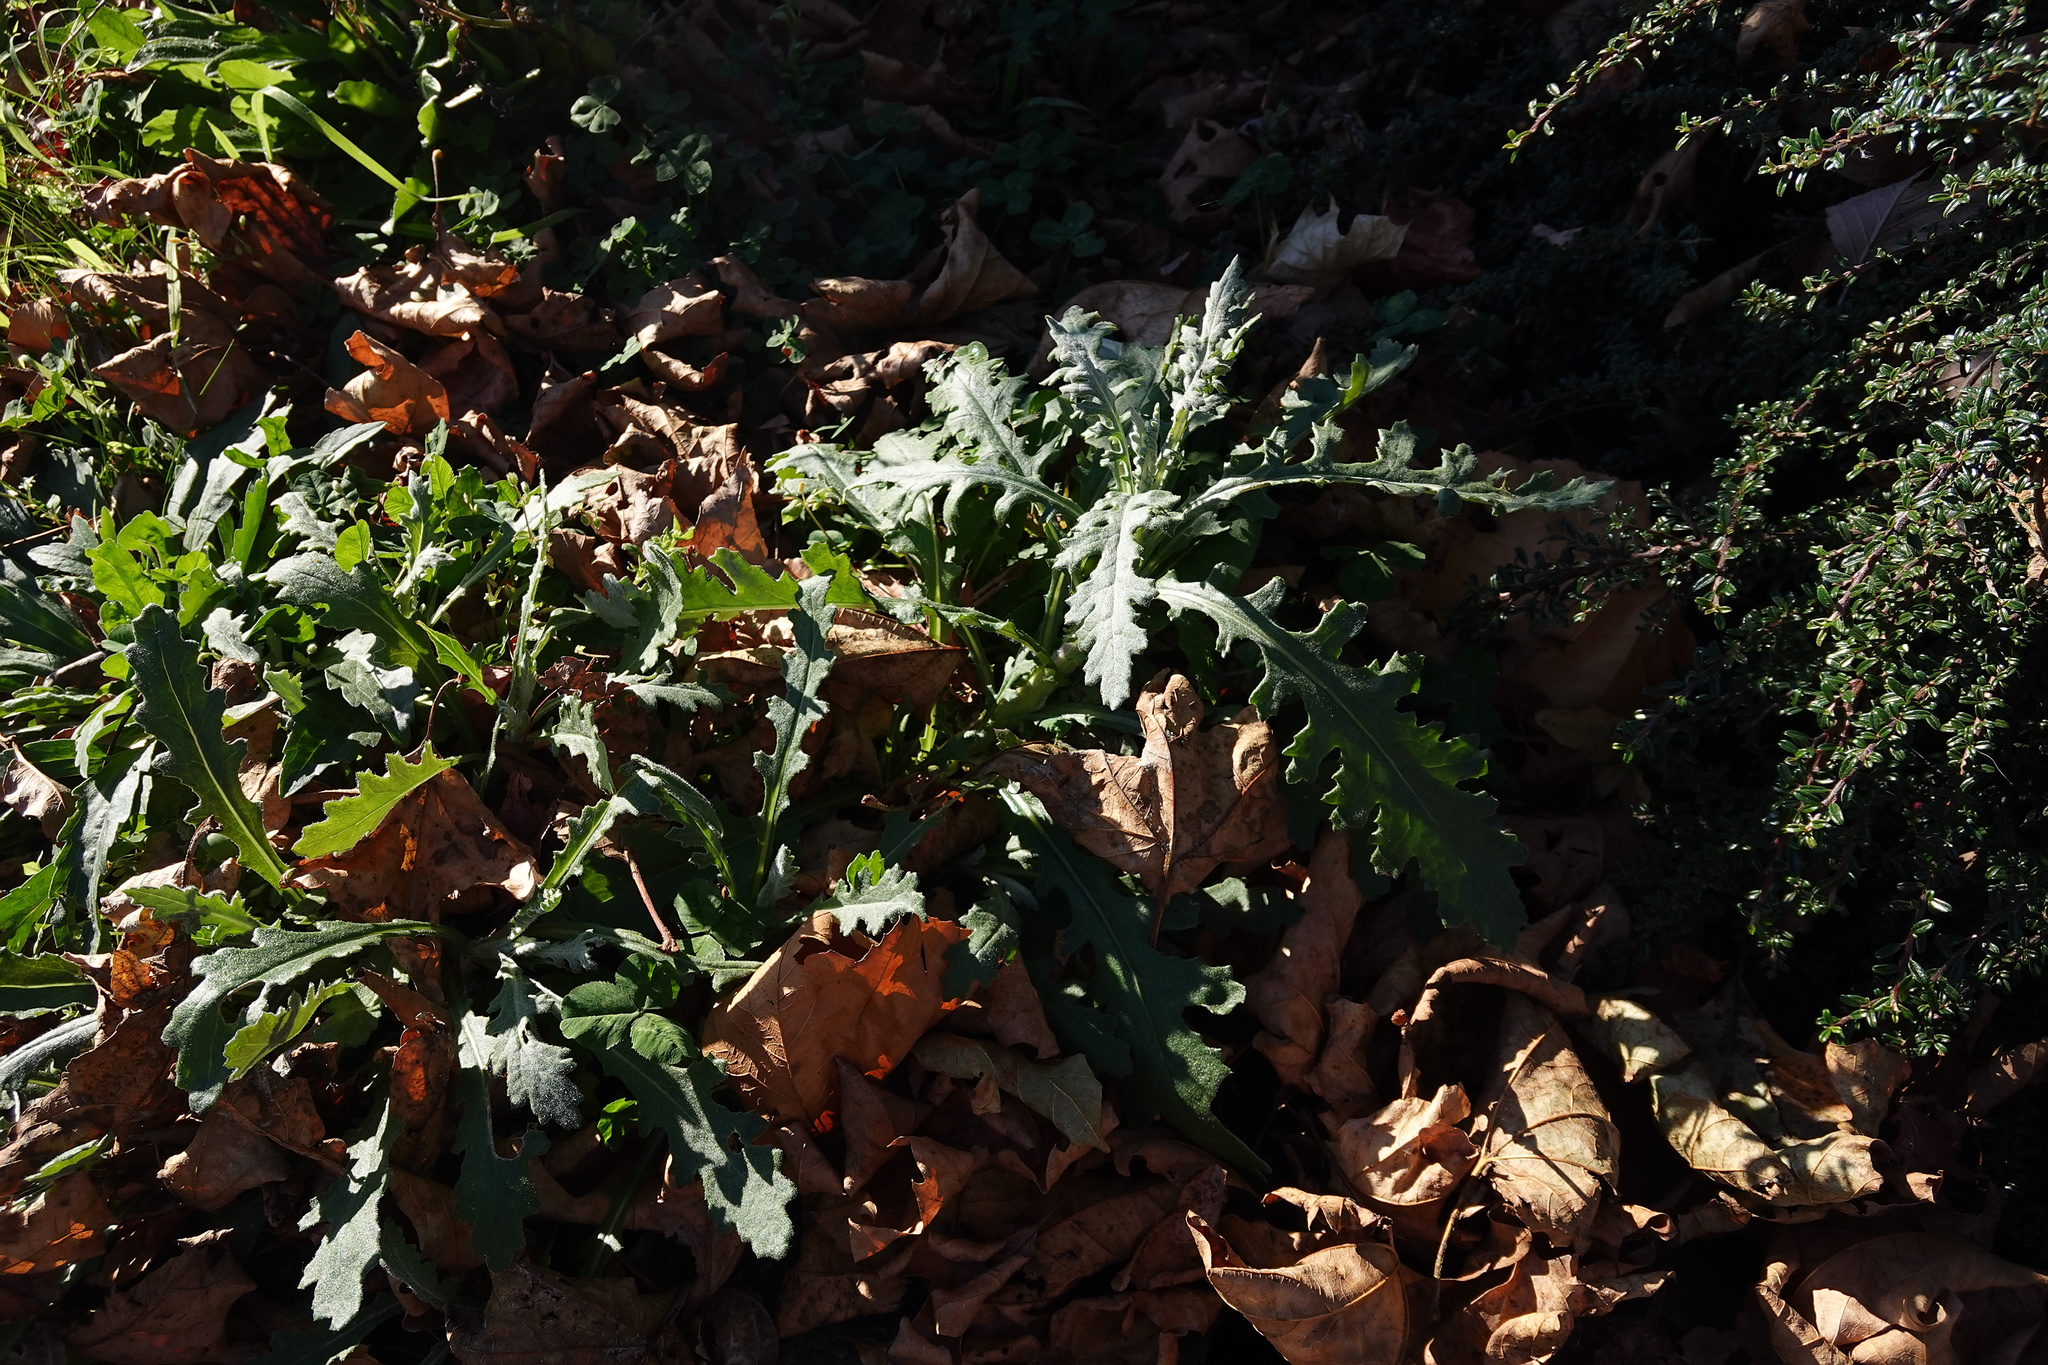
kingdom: Plantae
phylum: Tracheophyta
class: Magnoliopsida
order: Asterales
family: Asteraceae
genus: Senecio
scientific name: Senecio glomeratus
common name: Cutleaf burnweed
